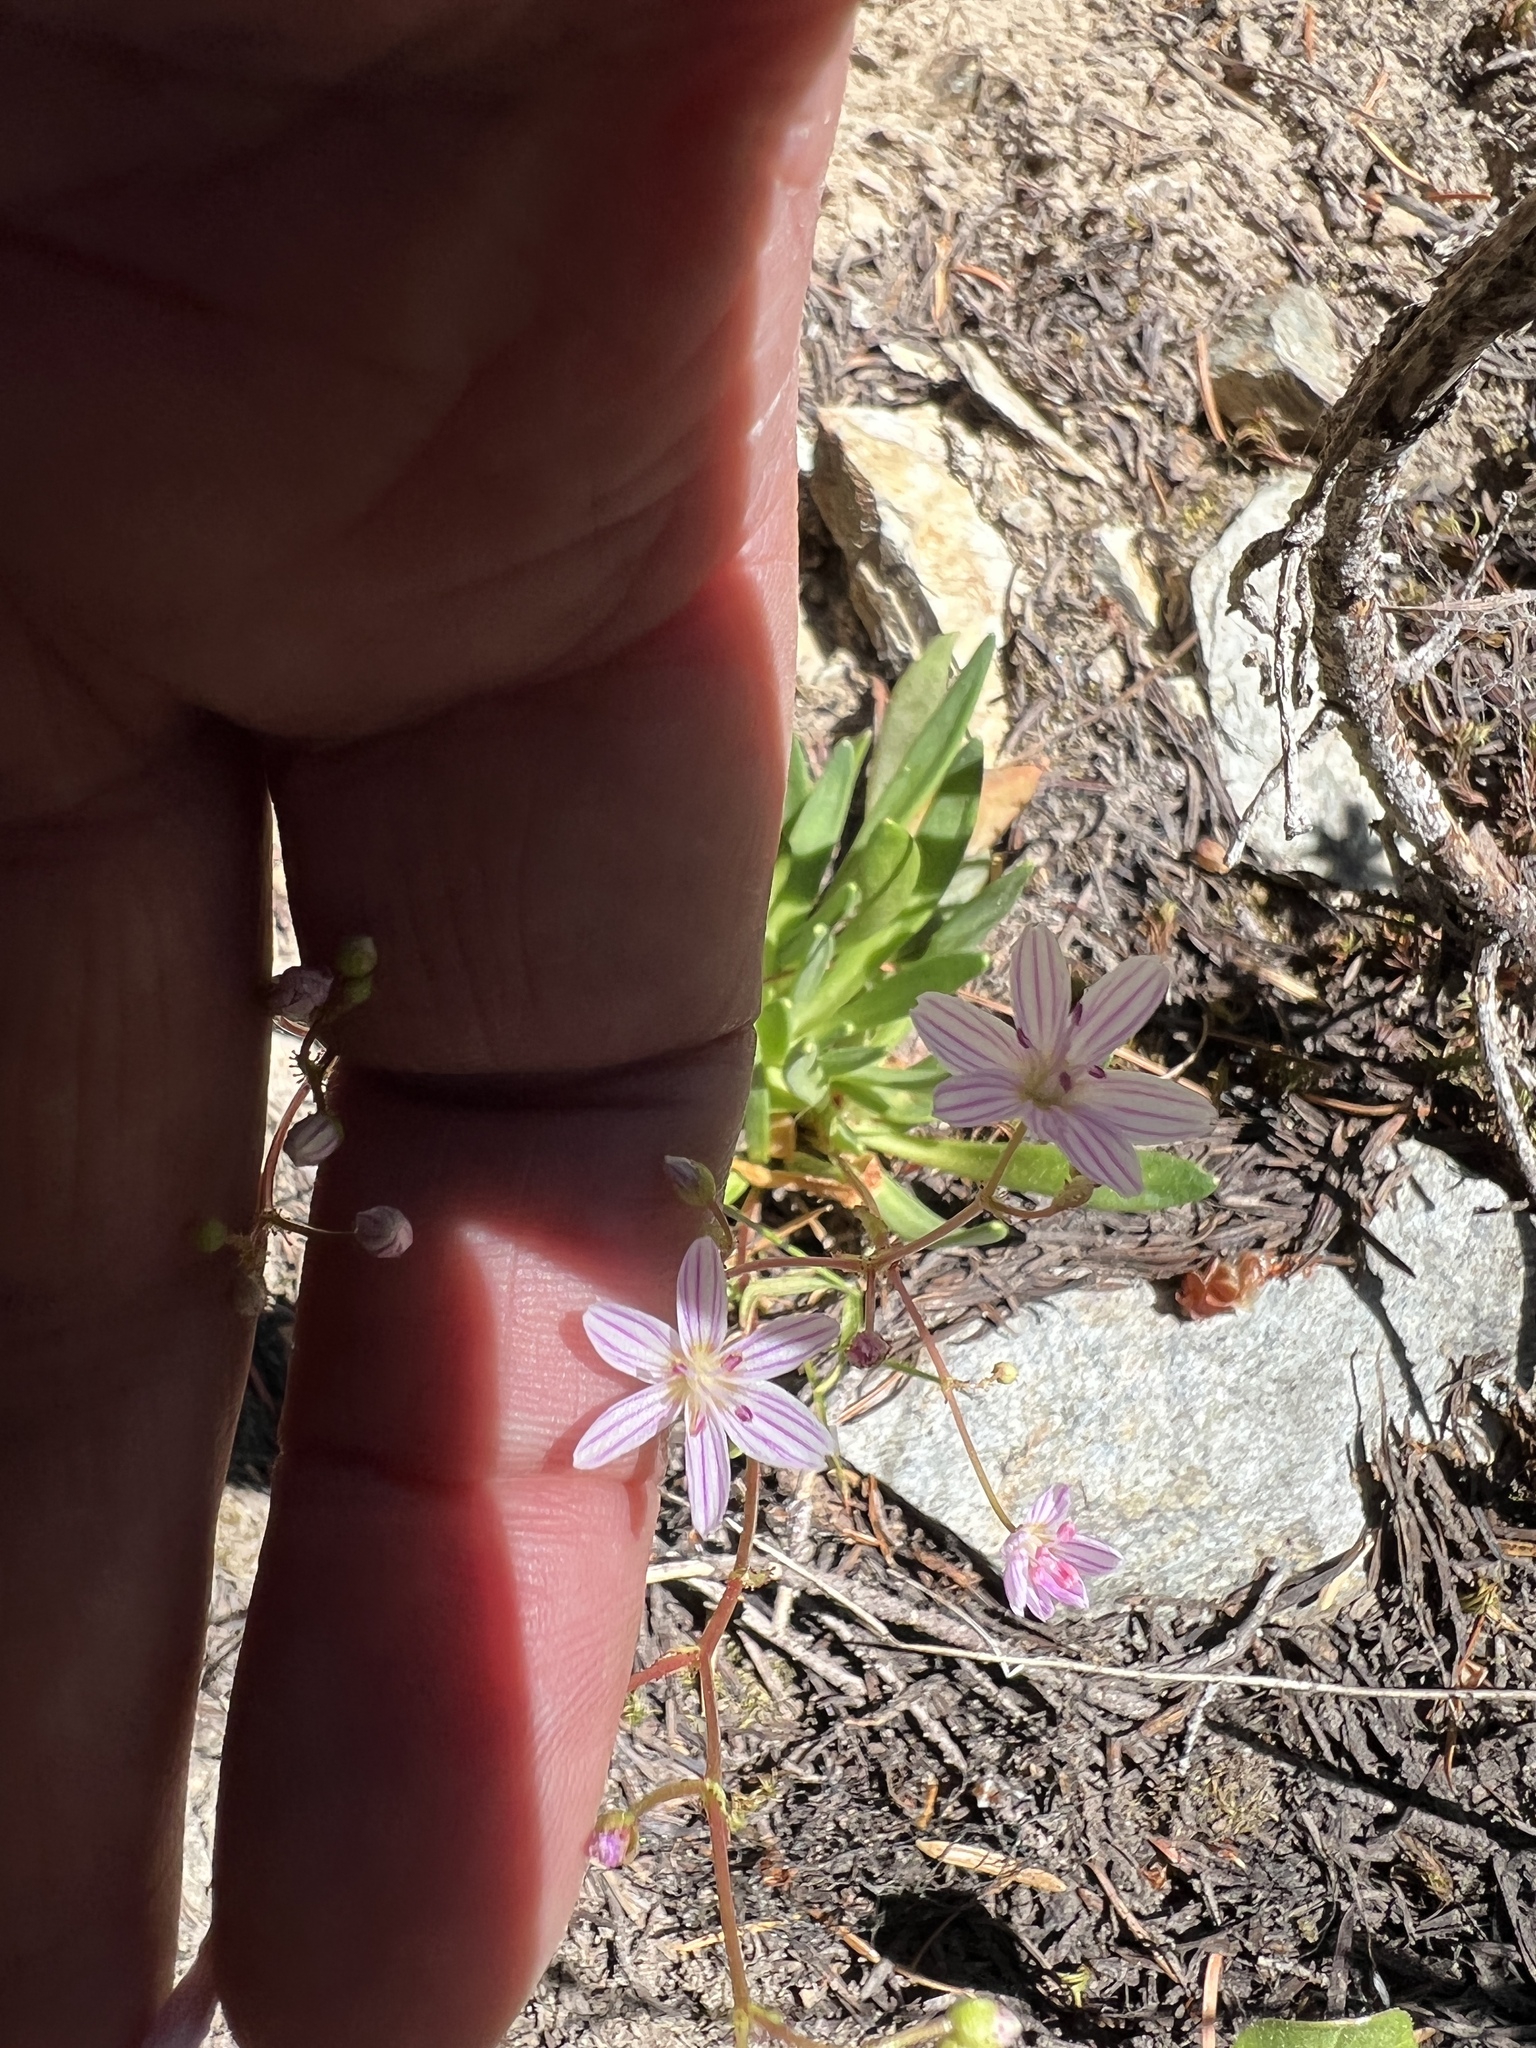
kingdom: Plantae
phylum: Tracheophyta
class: Magnoliopsida
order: Caryophyllales
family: Montiaceae
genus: Lewisia
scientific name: Lewisia columbiana
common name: Columbia lewisia
